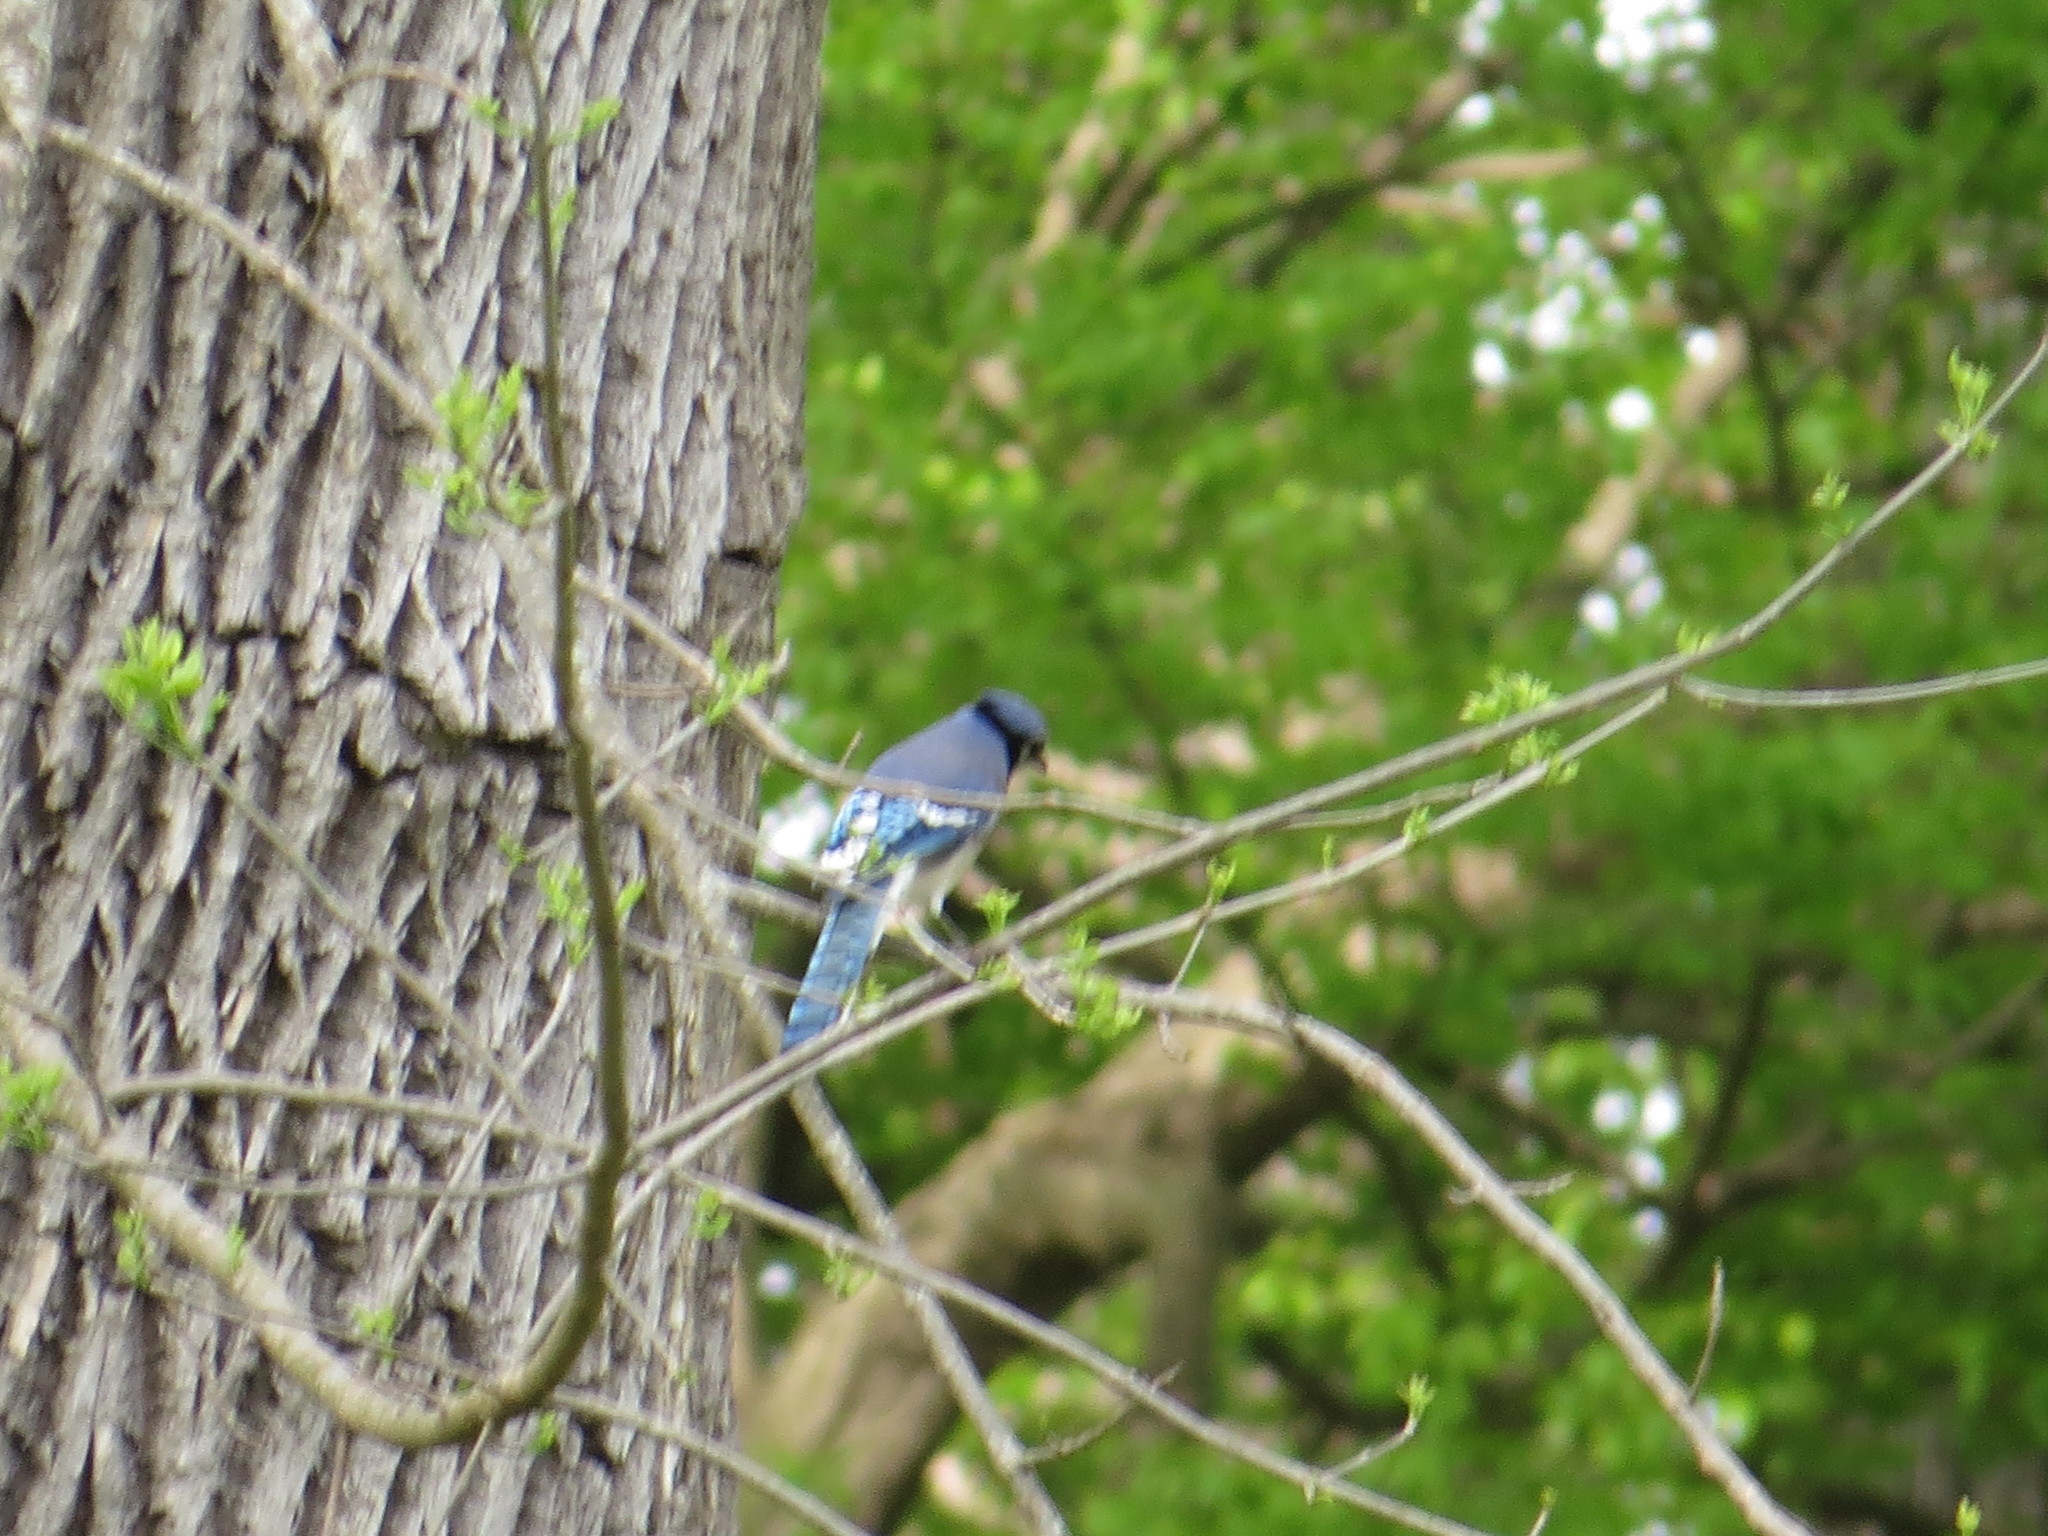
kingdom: Animalia
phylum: Chordata
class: Aves
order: Passeriformes
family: Corvidae
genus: Cyanocitta
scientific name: Cyanocitta cristata
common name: Blue jay
